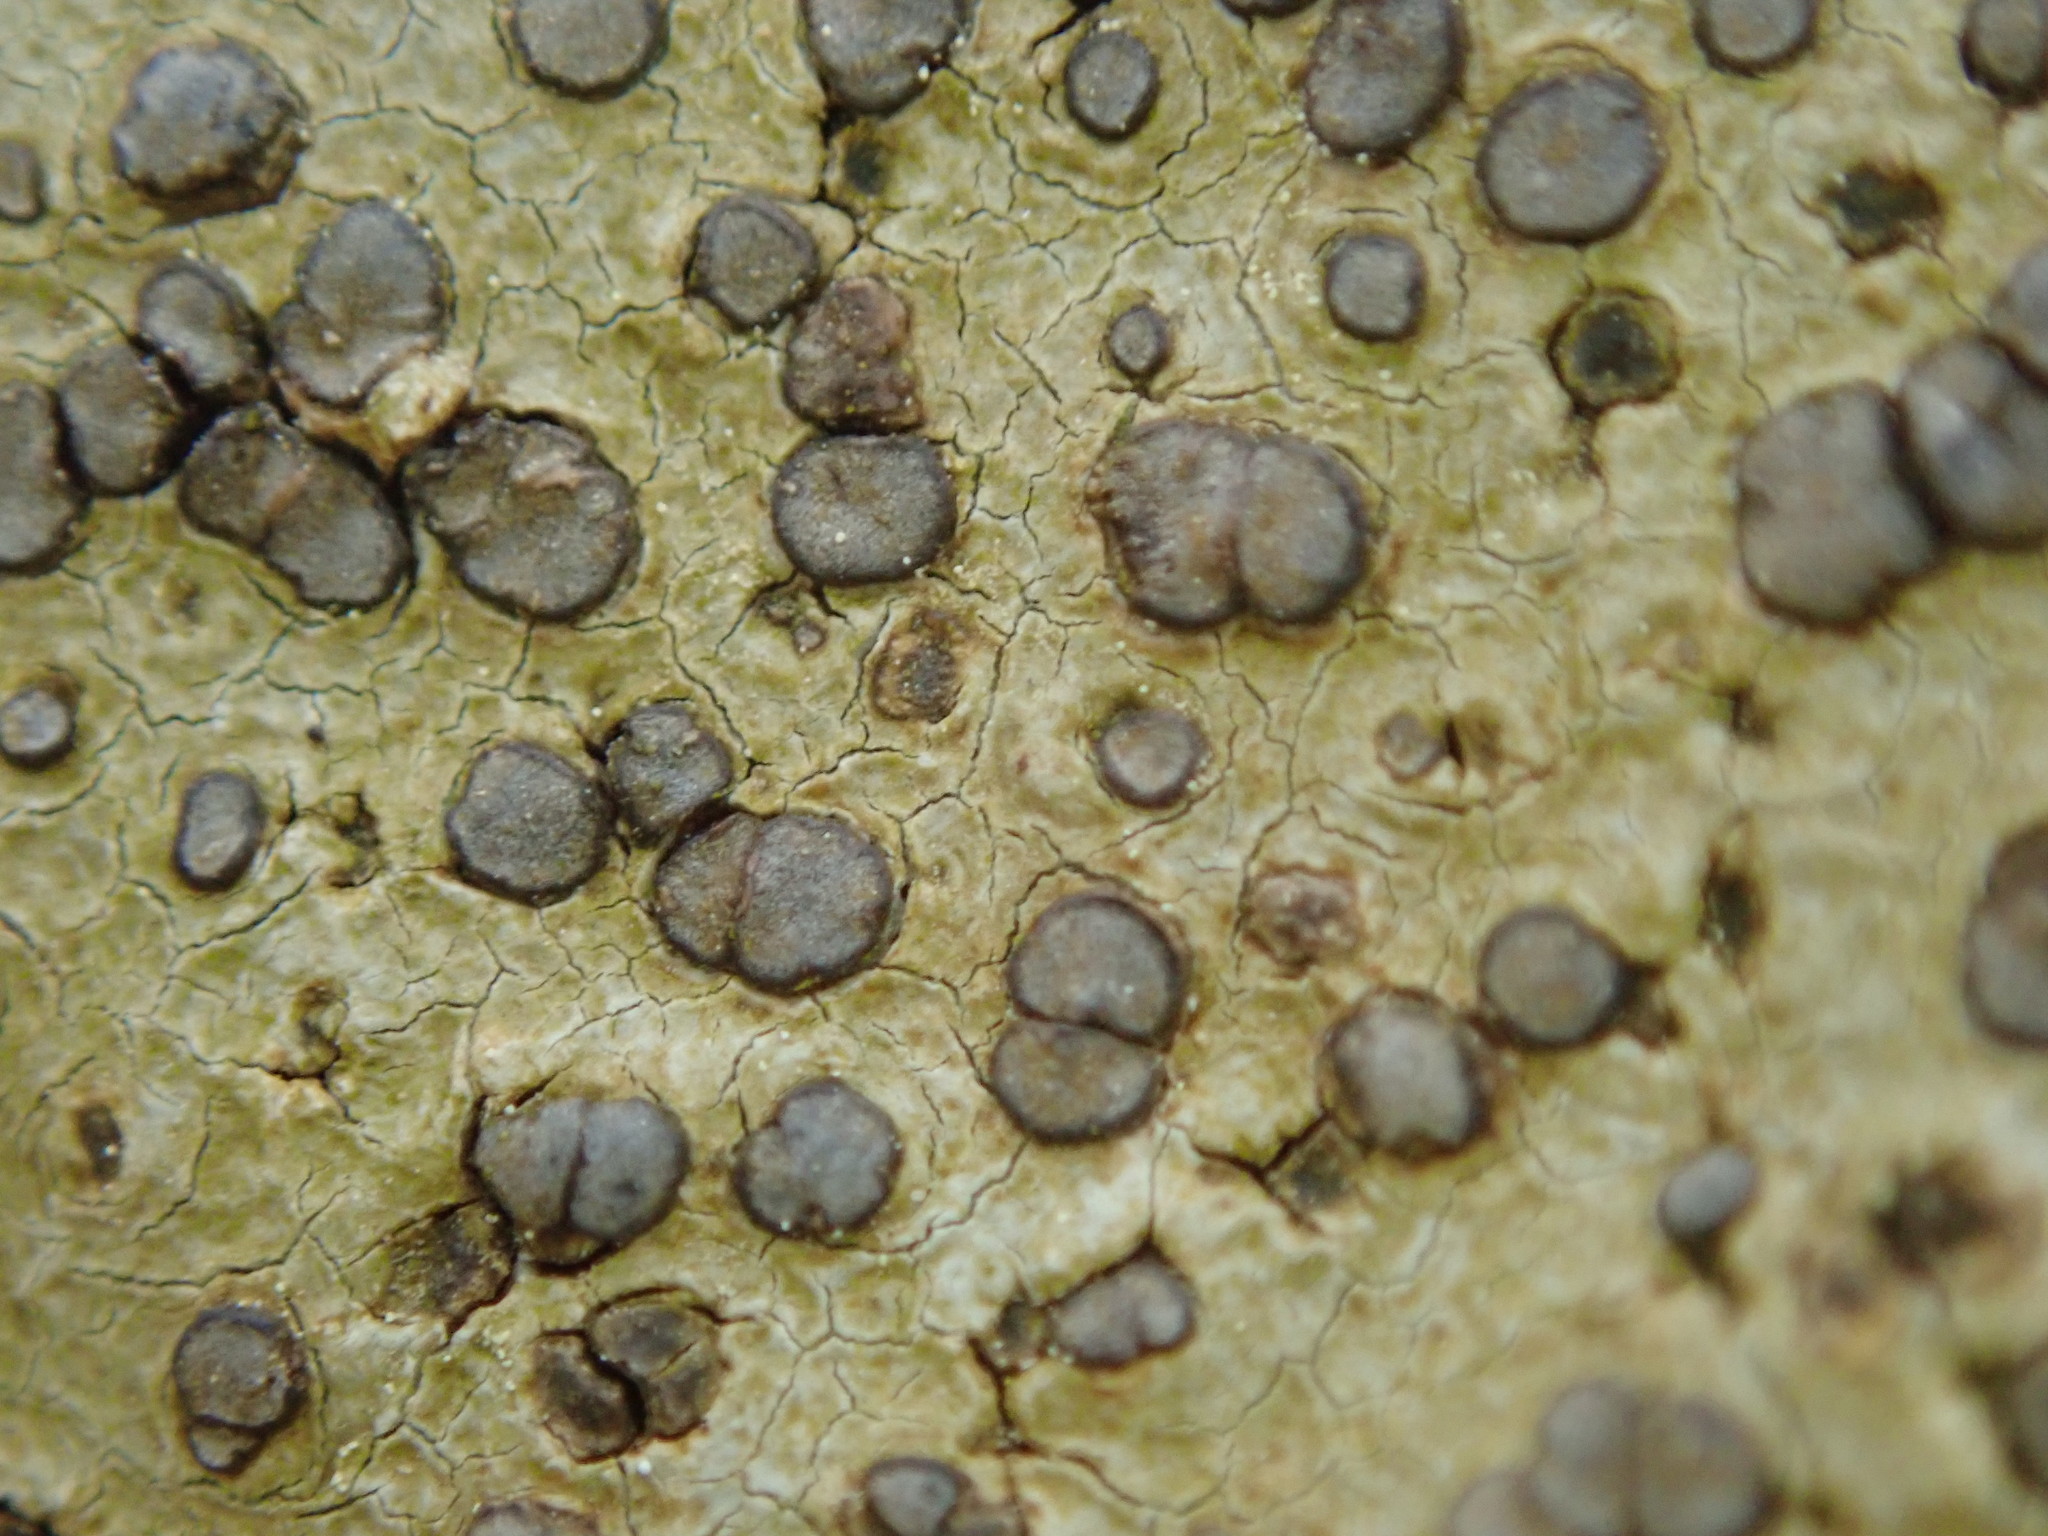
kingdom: Fungi
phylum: Ascomycota
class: Lecanoromycetes
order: Lecideales
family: Lecideaceae
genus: Porpidia
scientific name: Porpidia albocaerulescens
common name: Smokey-eyed boulder lichen
